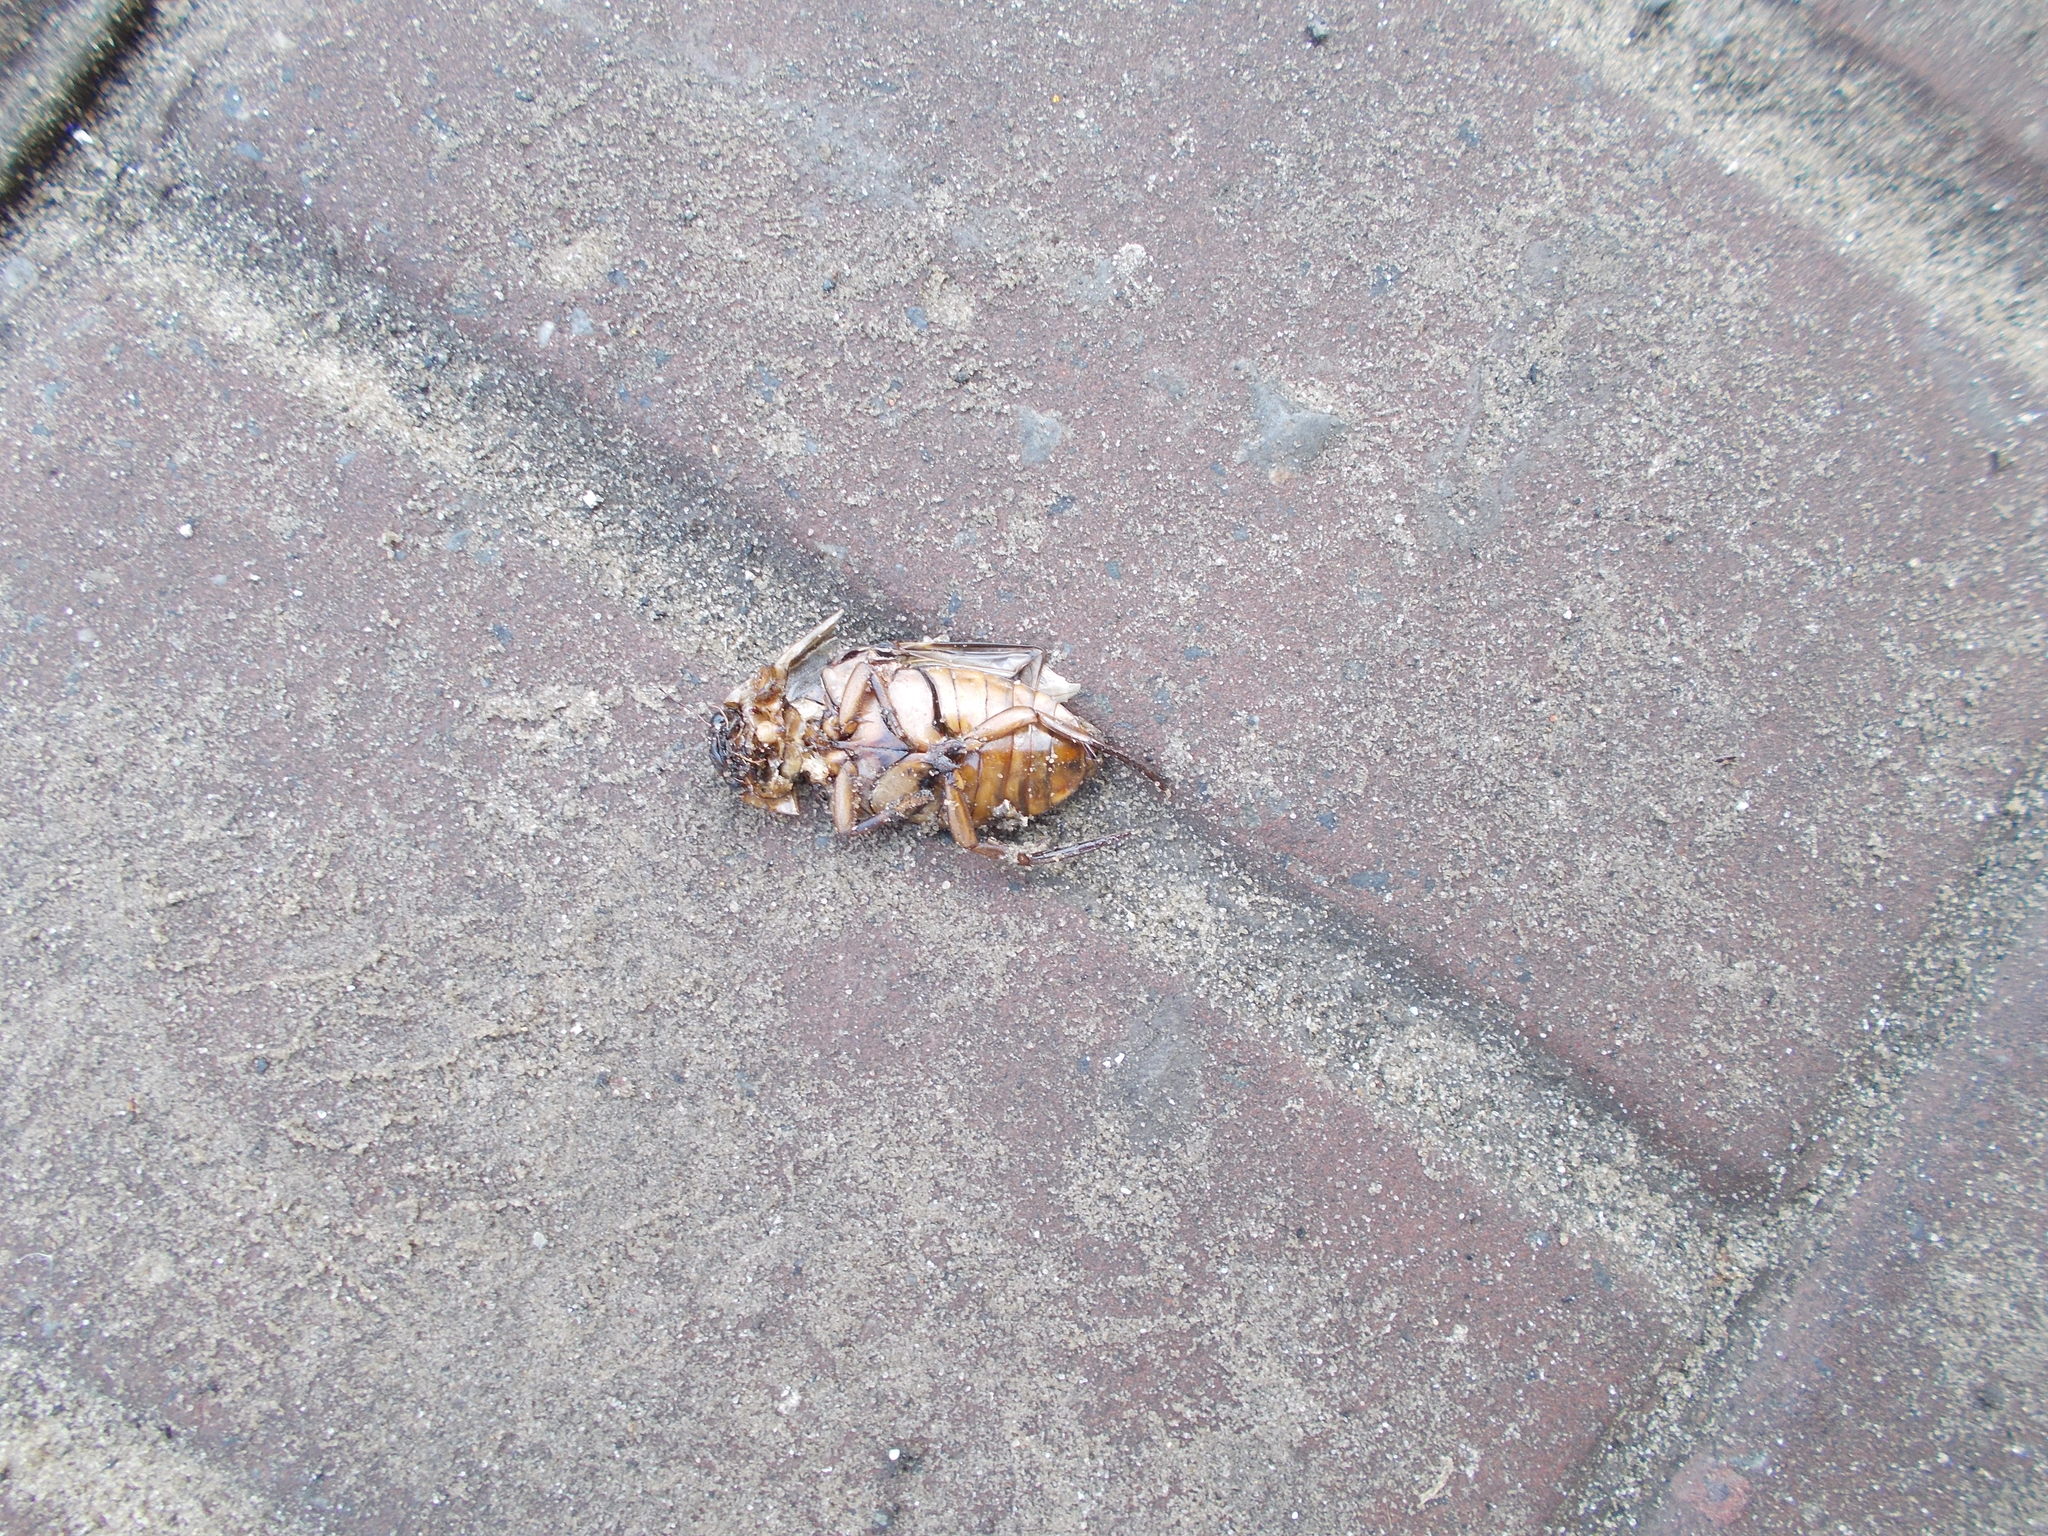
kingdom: Animalia
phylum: Arthropoda
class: Insecta
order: Coleoptera
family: Dytiscidae
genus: Dytiscus
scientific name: Dytiscus circumcinctus
